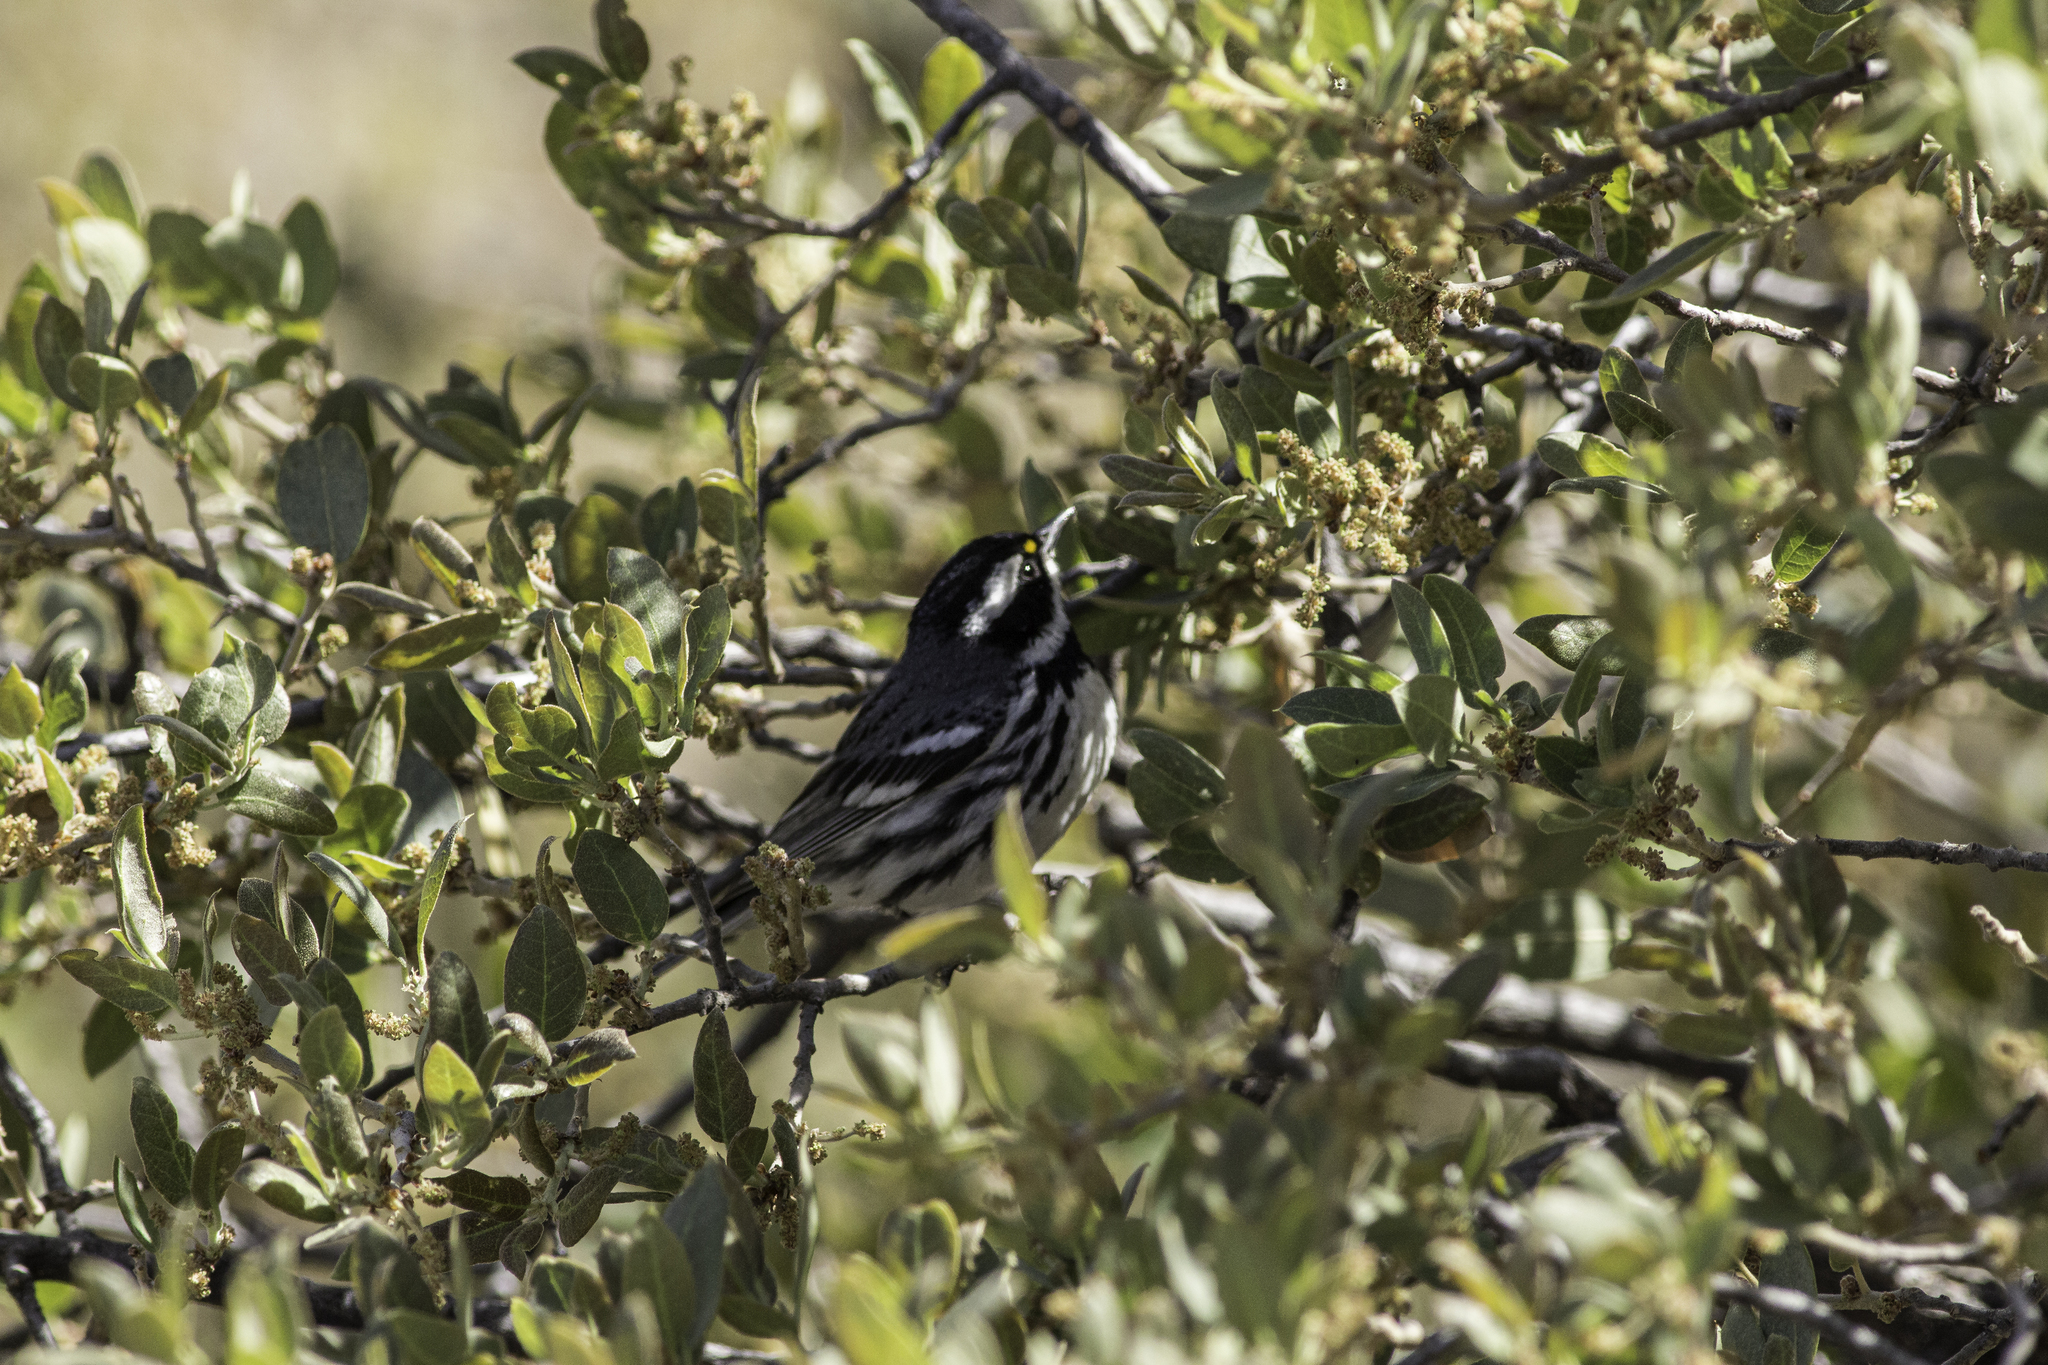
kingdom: Animalia
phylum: Chordata
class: Aves
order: Passeriformes
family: Parulidae
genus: Setophaga
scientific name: Setophaga nigrescens
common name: Black-throated gray warbler
